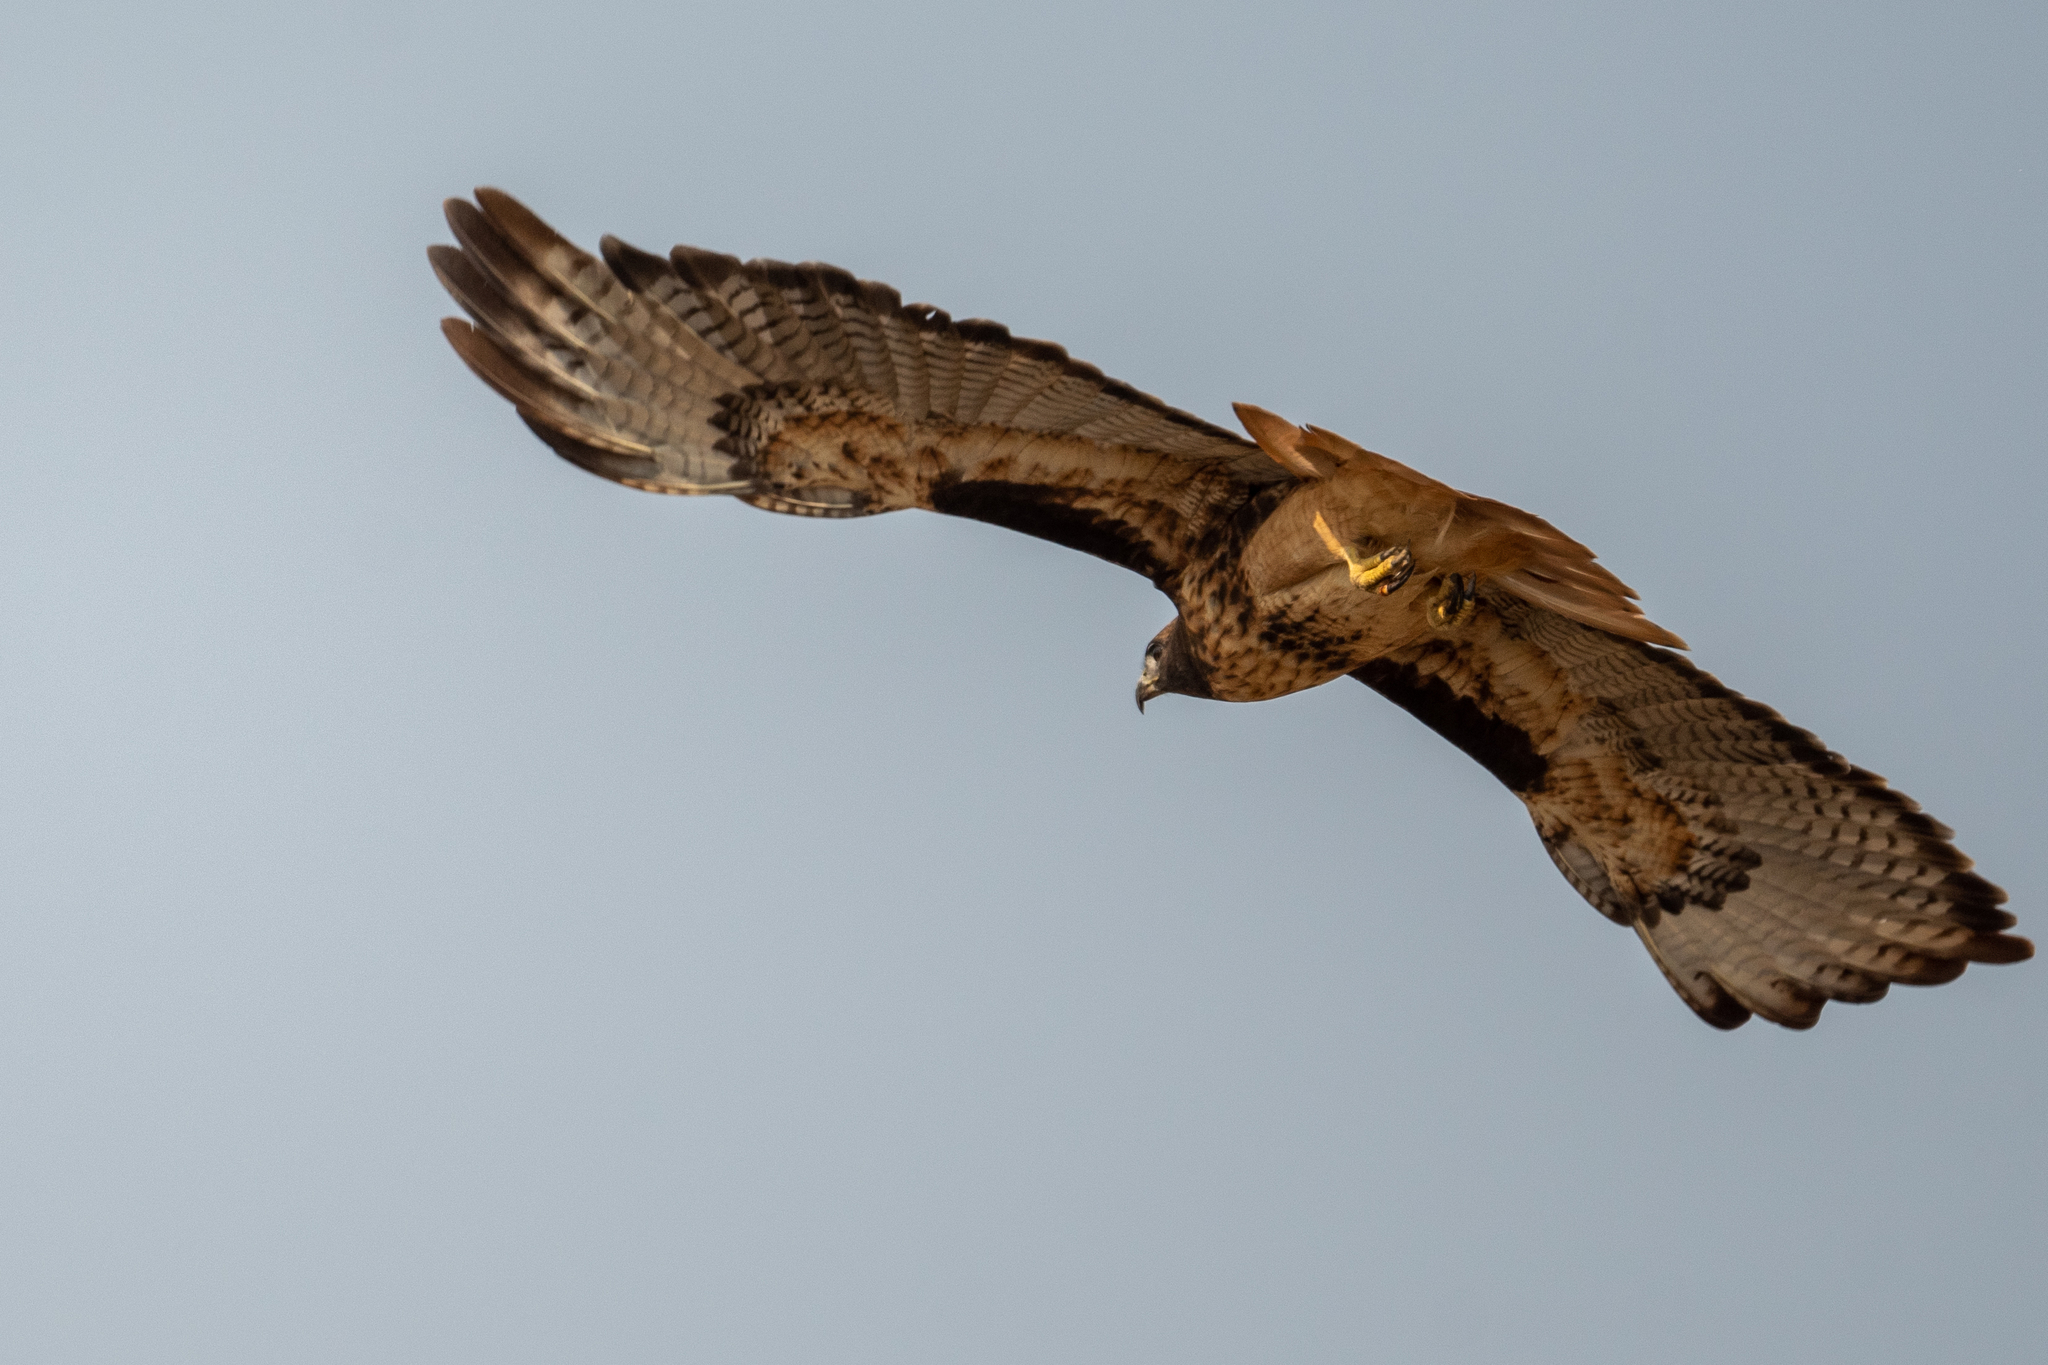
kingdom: Animalia
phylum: Chordata
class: Aves
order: Accipitriformes
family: Accipitridae
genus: Buteo
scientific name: Buteo jamaicensis
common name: Red-tailed hawk
